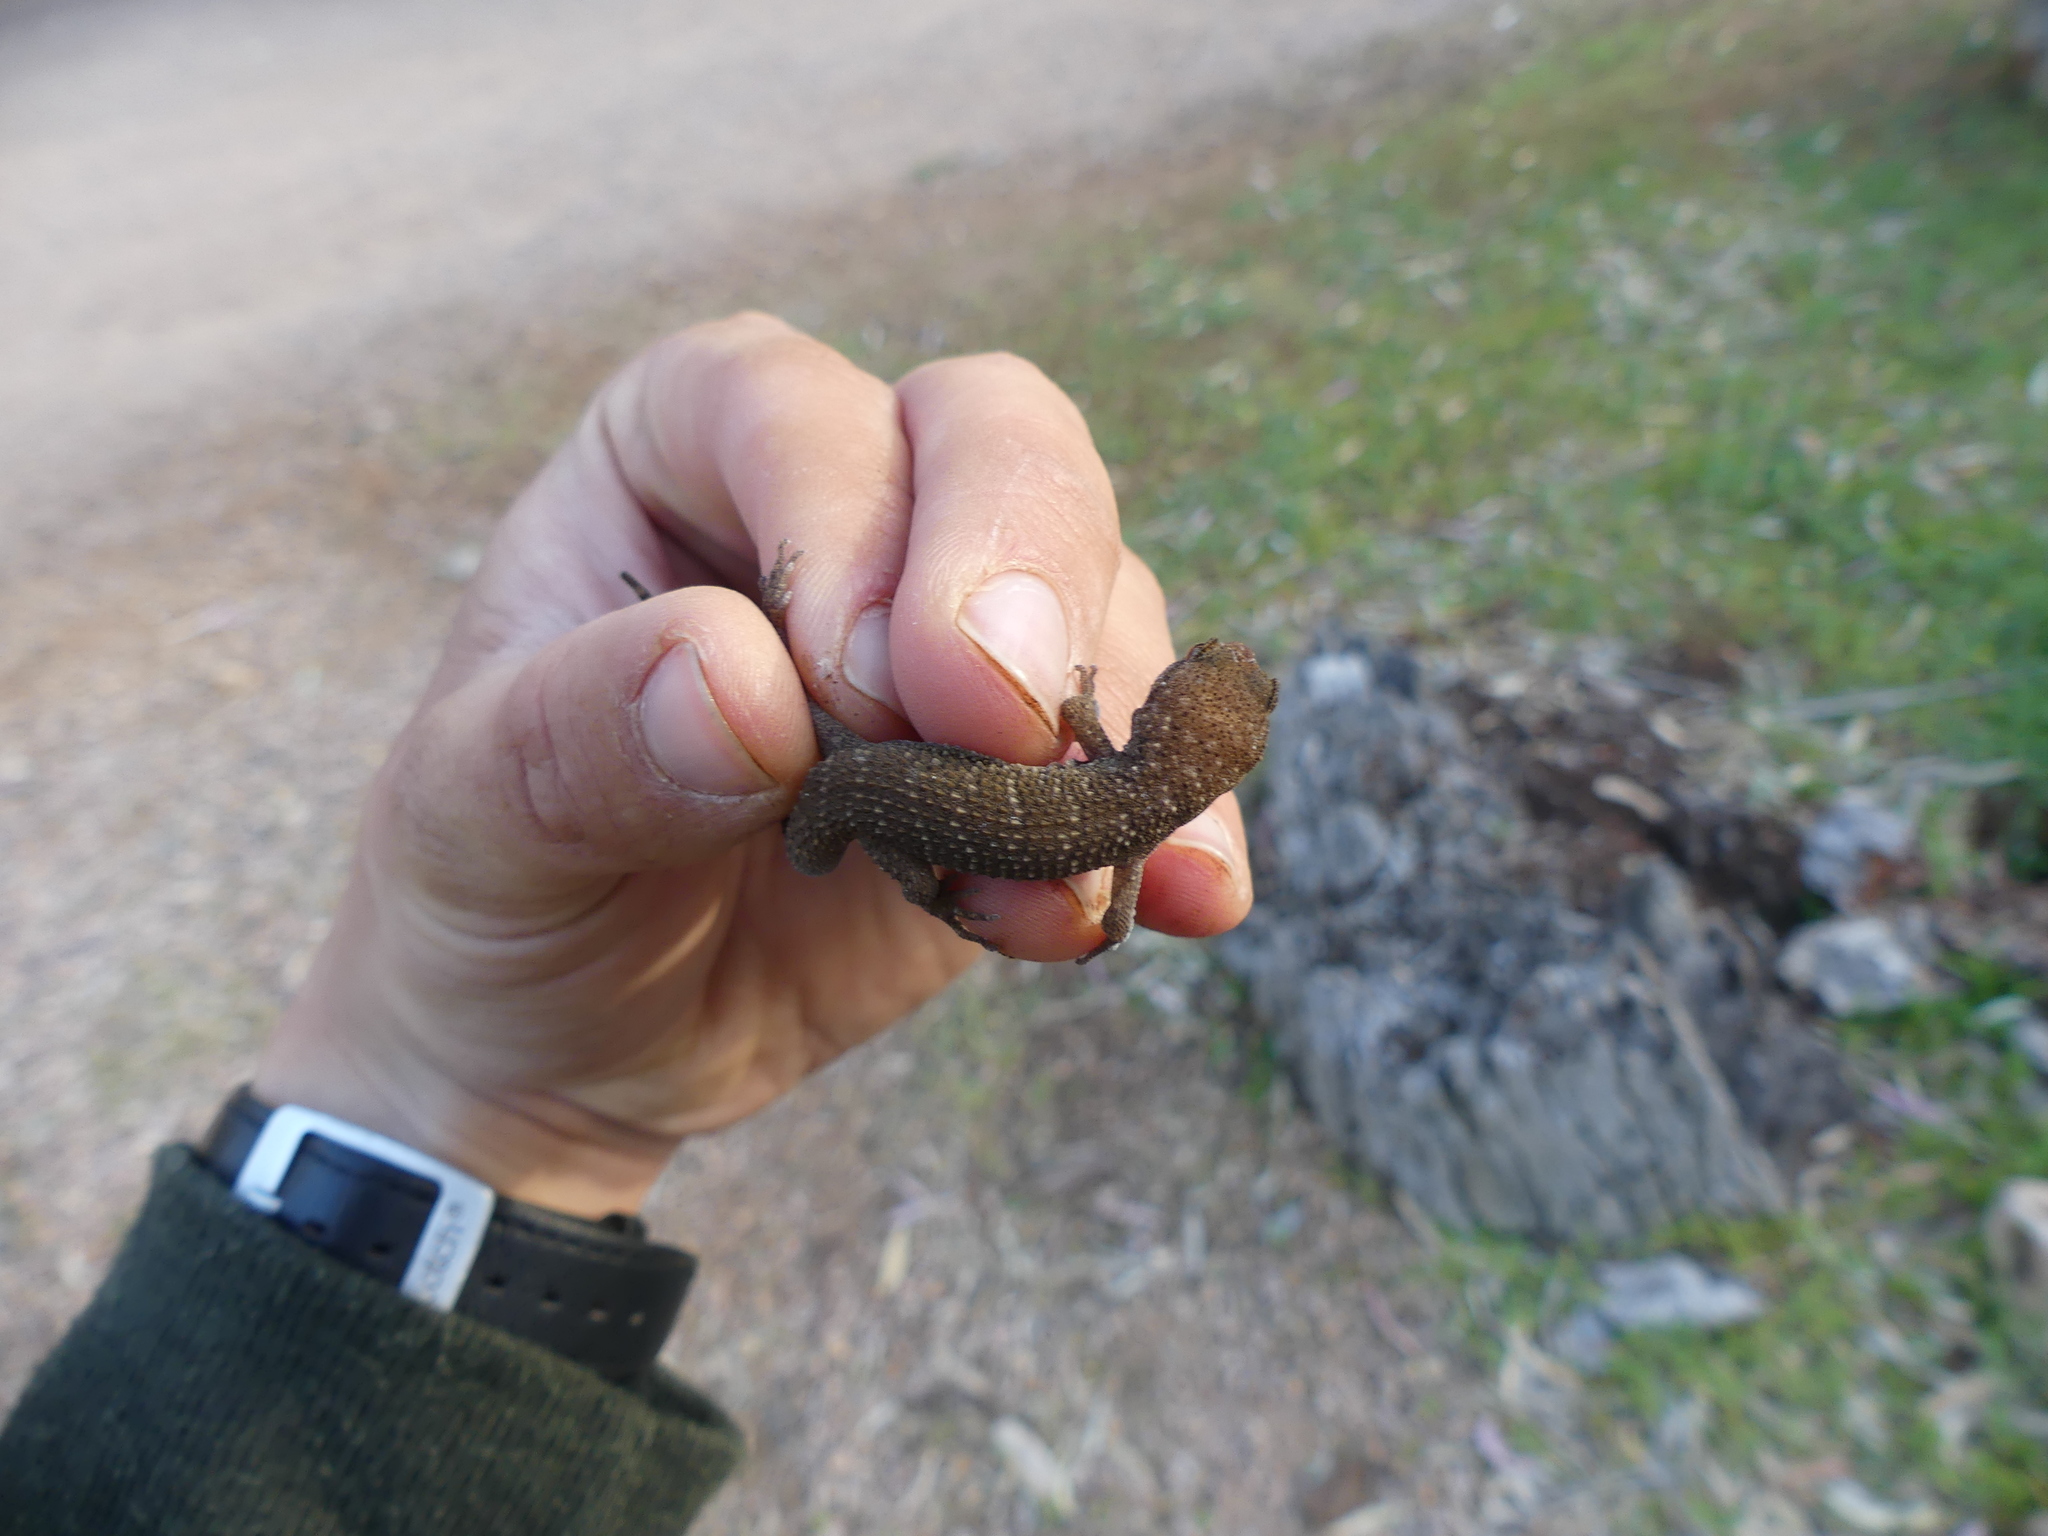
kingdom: Animalia
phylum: Chordata
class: Squamata
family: Gekkonidae
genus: Heteronotia
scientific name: Heteronotia binoei
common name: Bynoe's gecko
